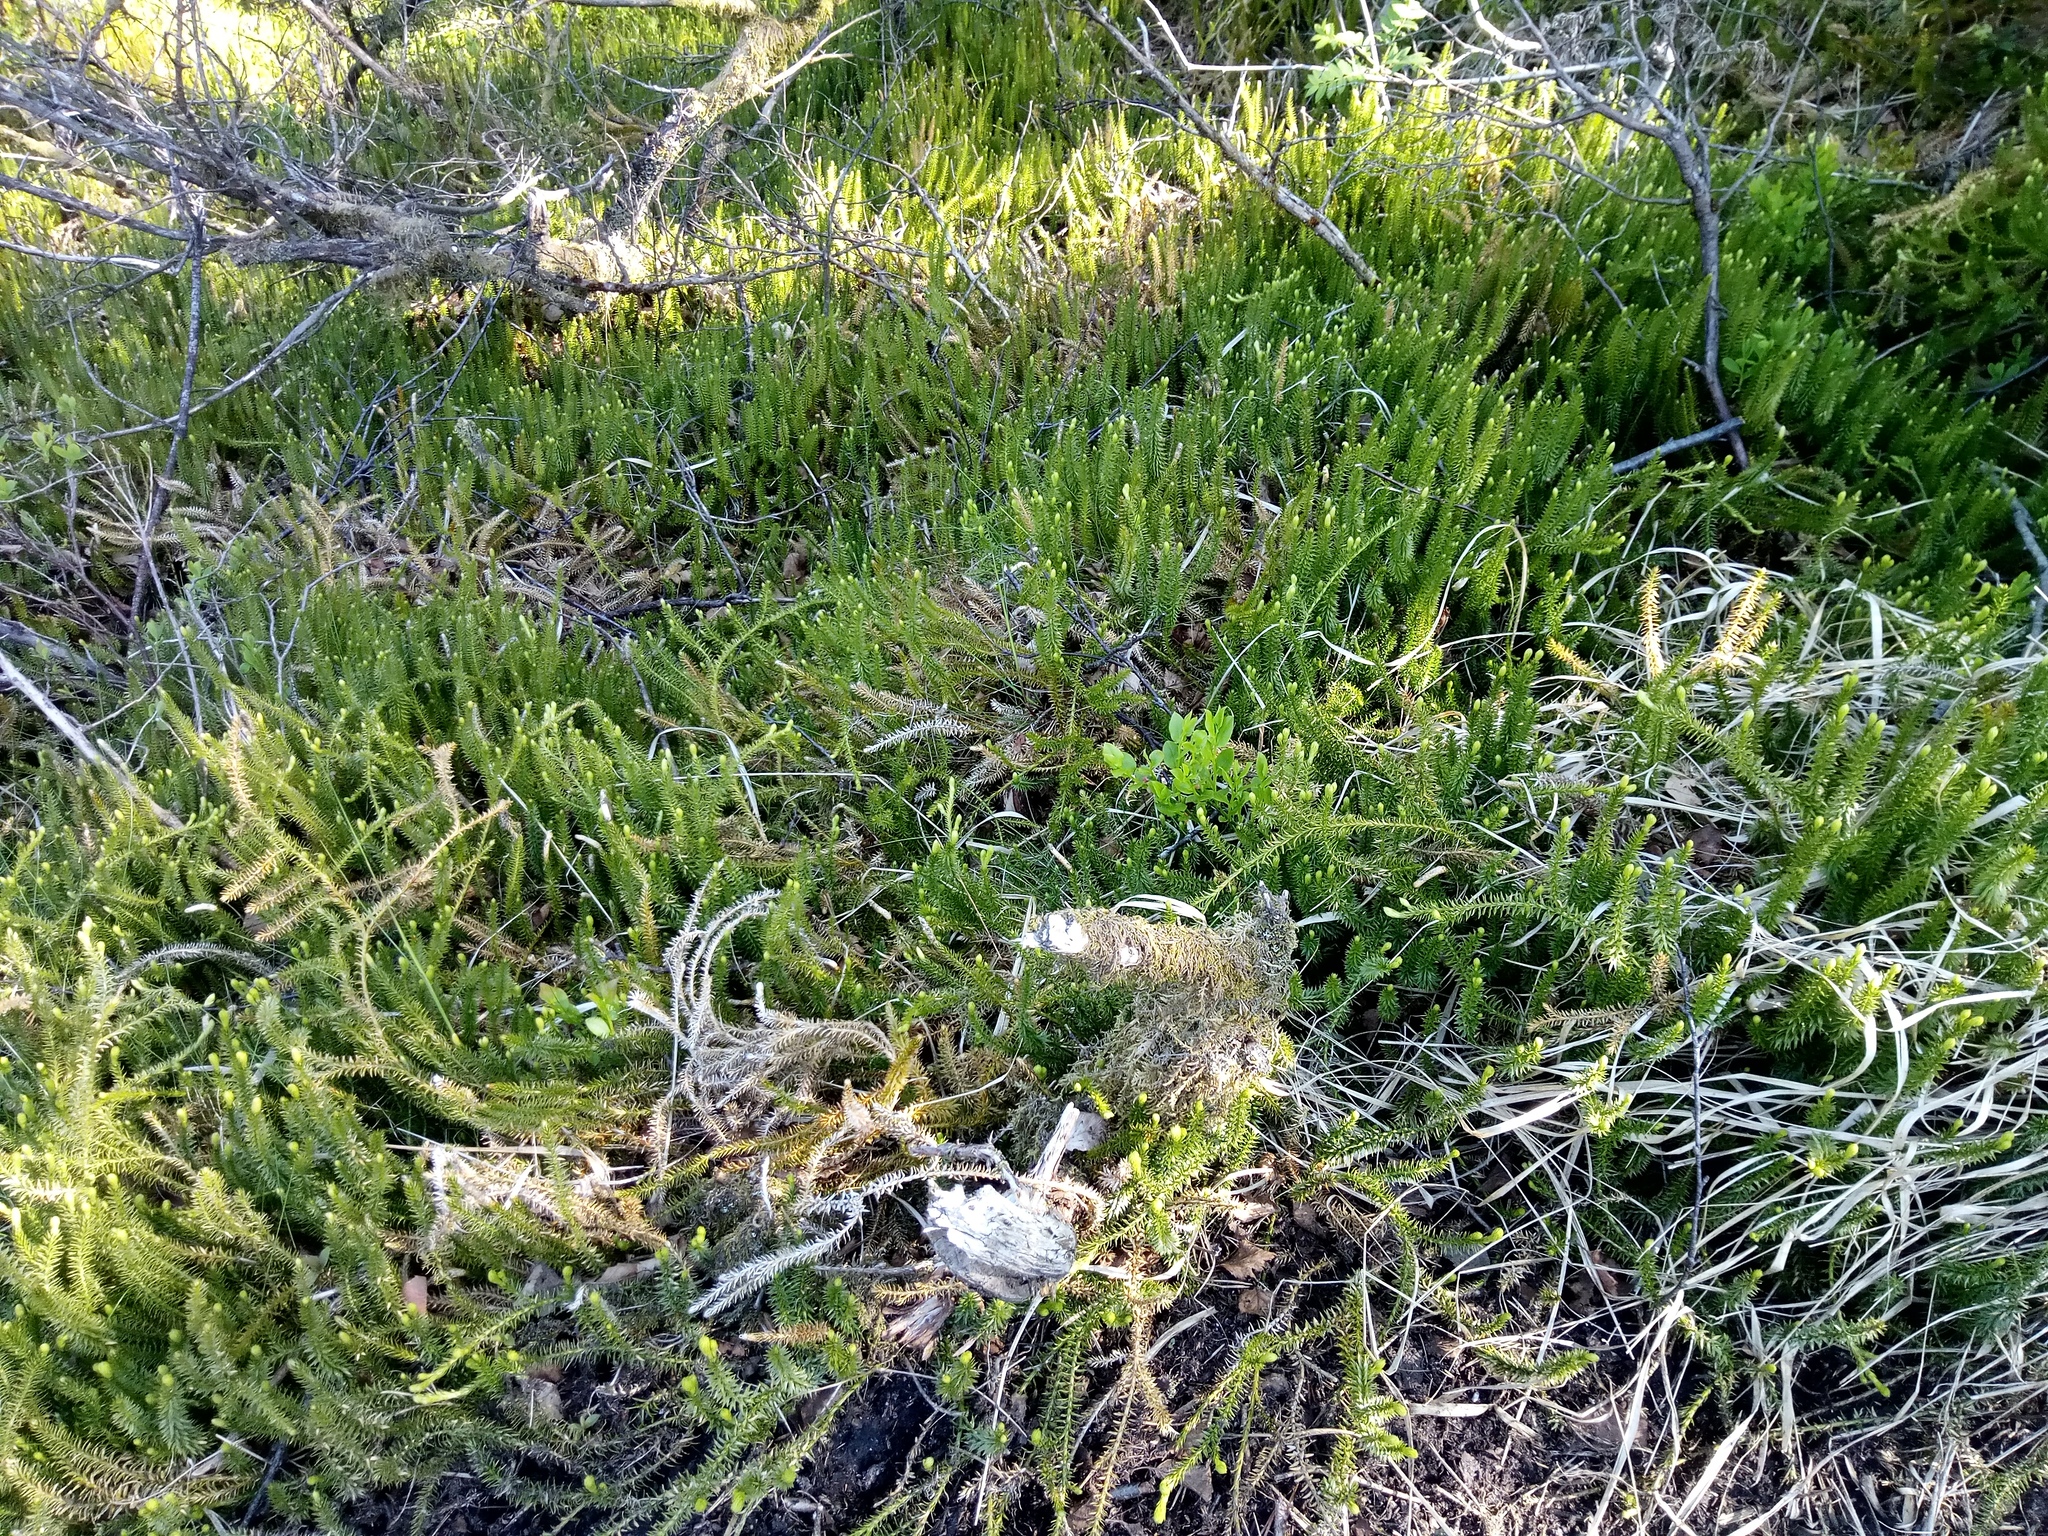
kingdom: Plantae
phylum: Tracheophyta
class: Lycopodiopsida
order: Lycopodiales
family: Lycopodiaceae
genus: Spinulum
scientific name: Spinulum annotinum
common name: Interrupted club-moss
